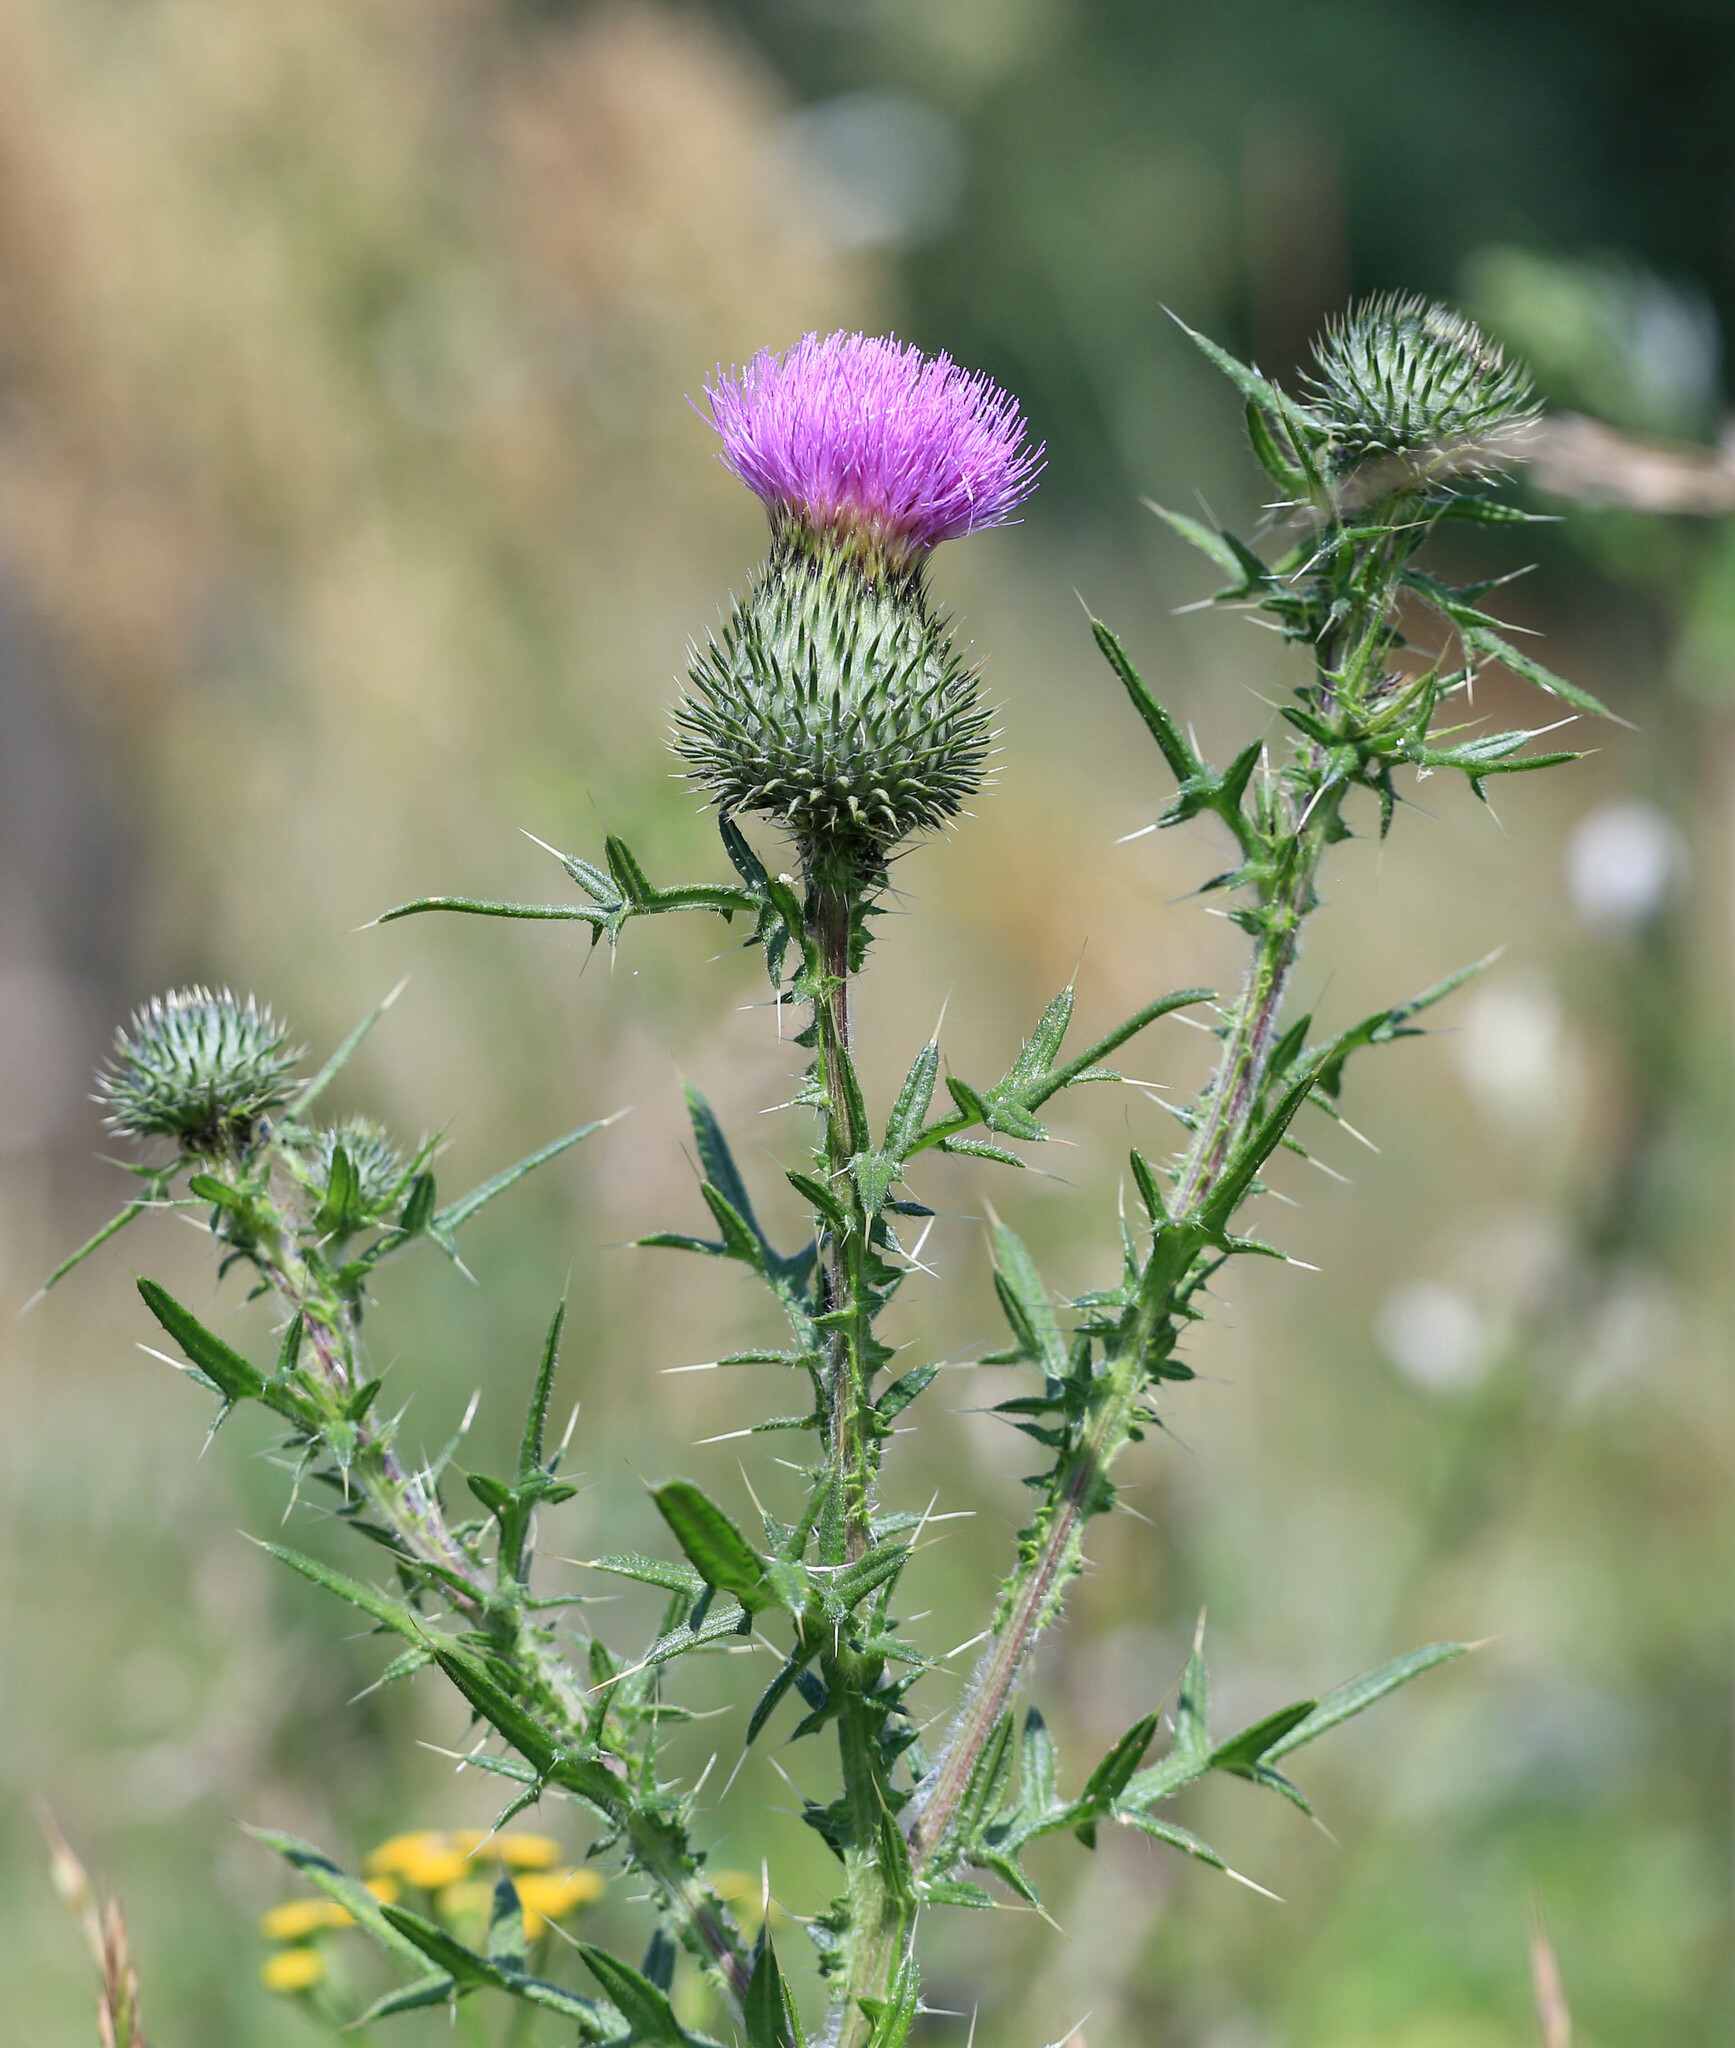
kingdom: Plantae
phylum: Tracheophyta
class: Magnoliopsida
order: Asterales
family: Asteraceae
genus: Cirsium
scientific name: Cirsium vulgare
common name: Bull thistle
